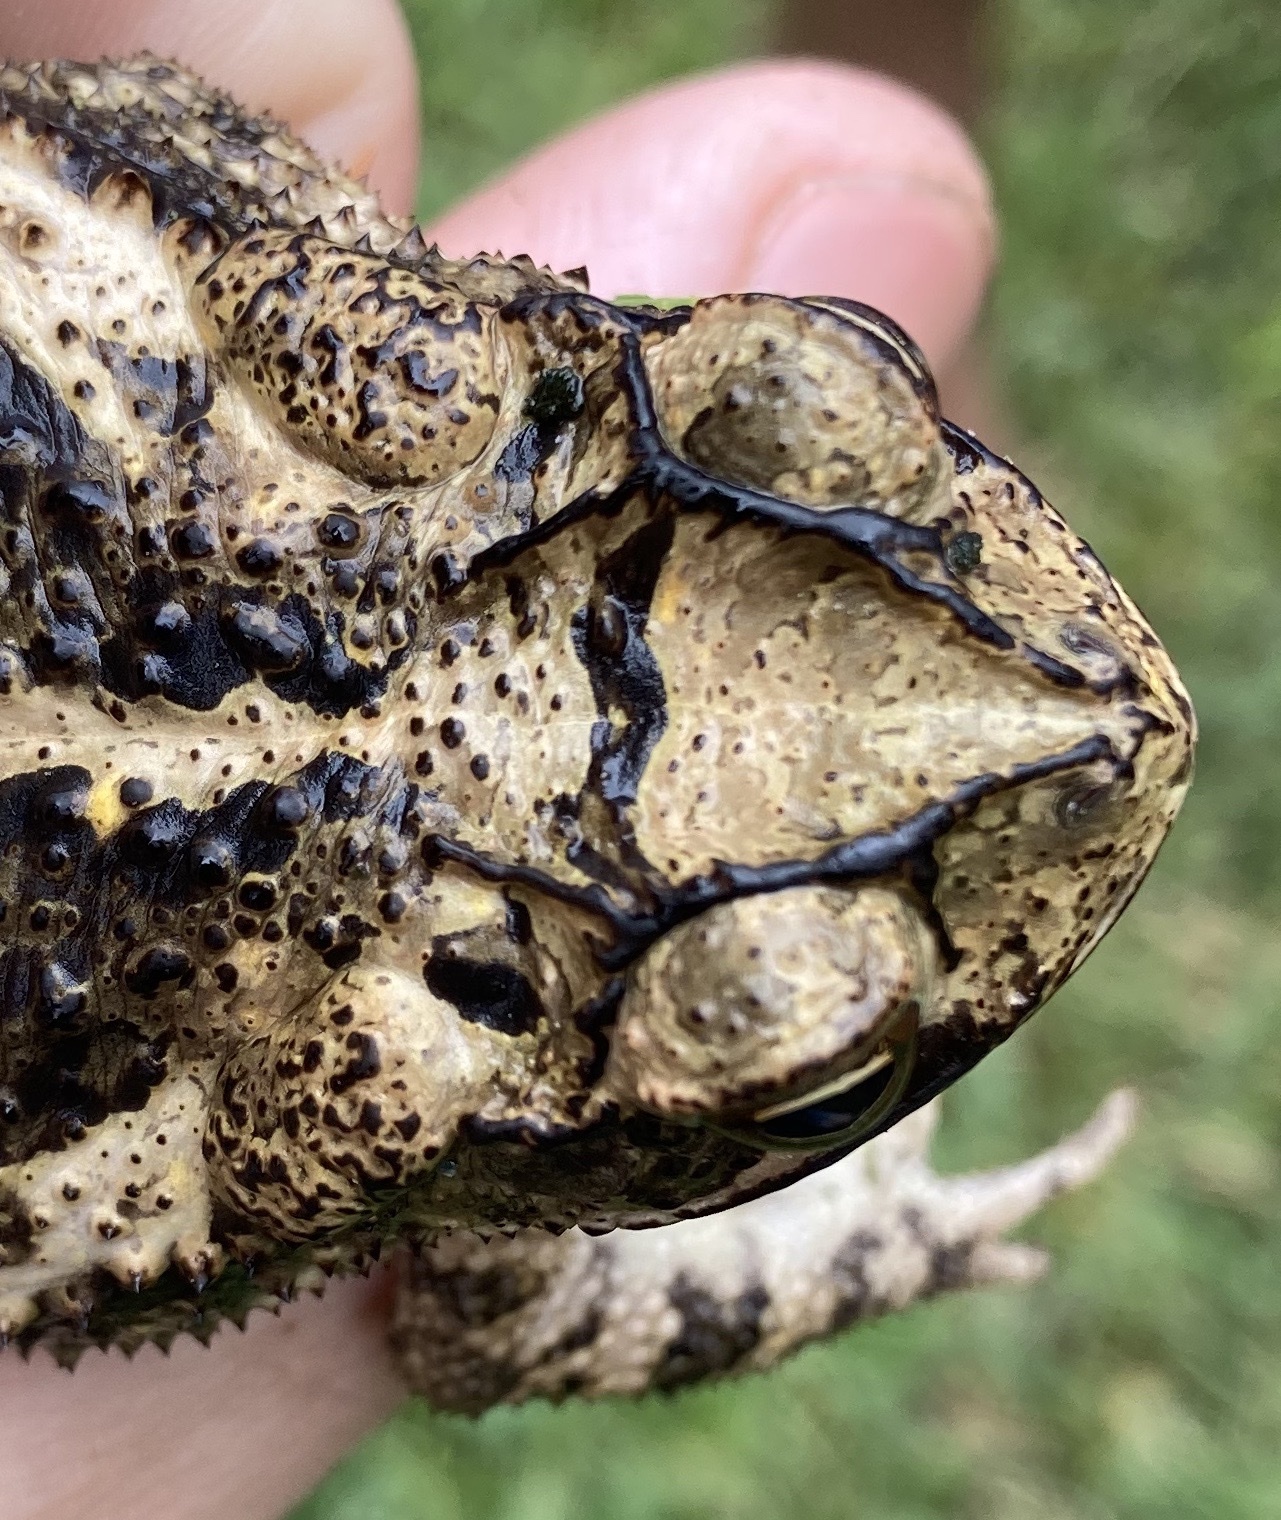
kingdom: Animalia
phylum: Chordata
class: Amphibia
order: Anura
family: Bufonidae
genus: Incilius
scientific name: Incilius nebulifer
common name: Gulf coast toad
